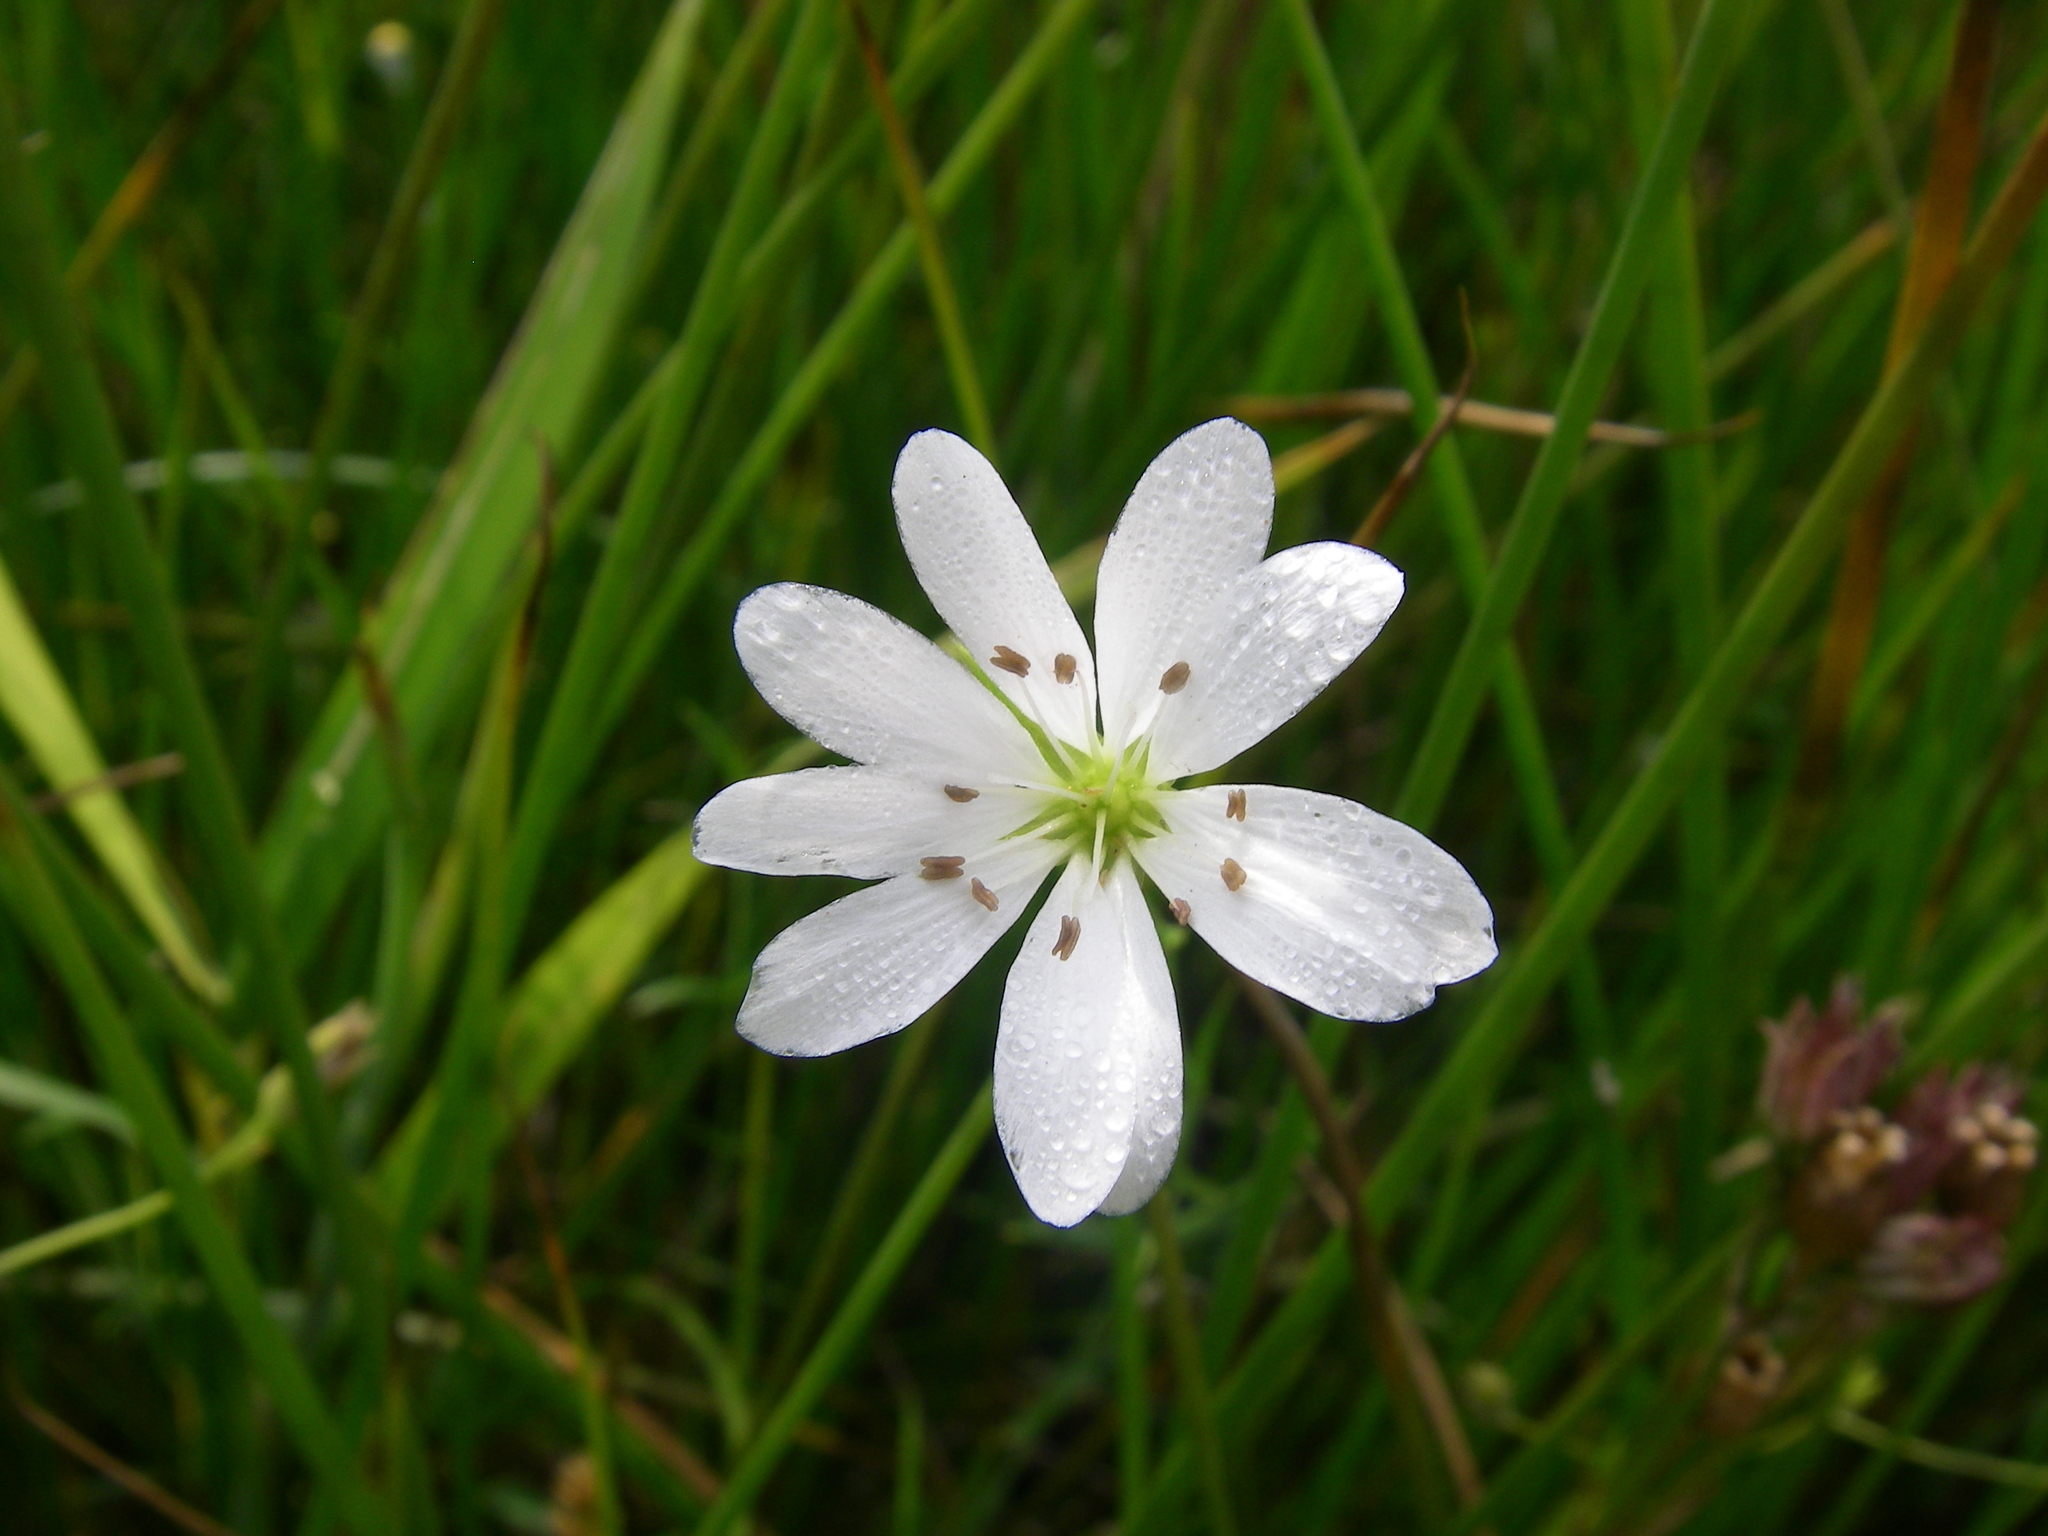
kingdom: Plantae
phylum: Tracheophyta
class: Magnoliopsida
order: Caryophyllales
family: Caryophyllaceae
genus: Stellaria
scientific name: Stellaria palustris
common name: Marsh stitchwort
